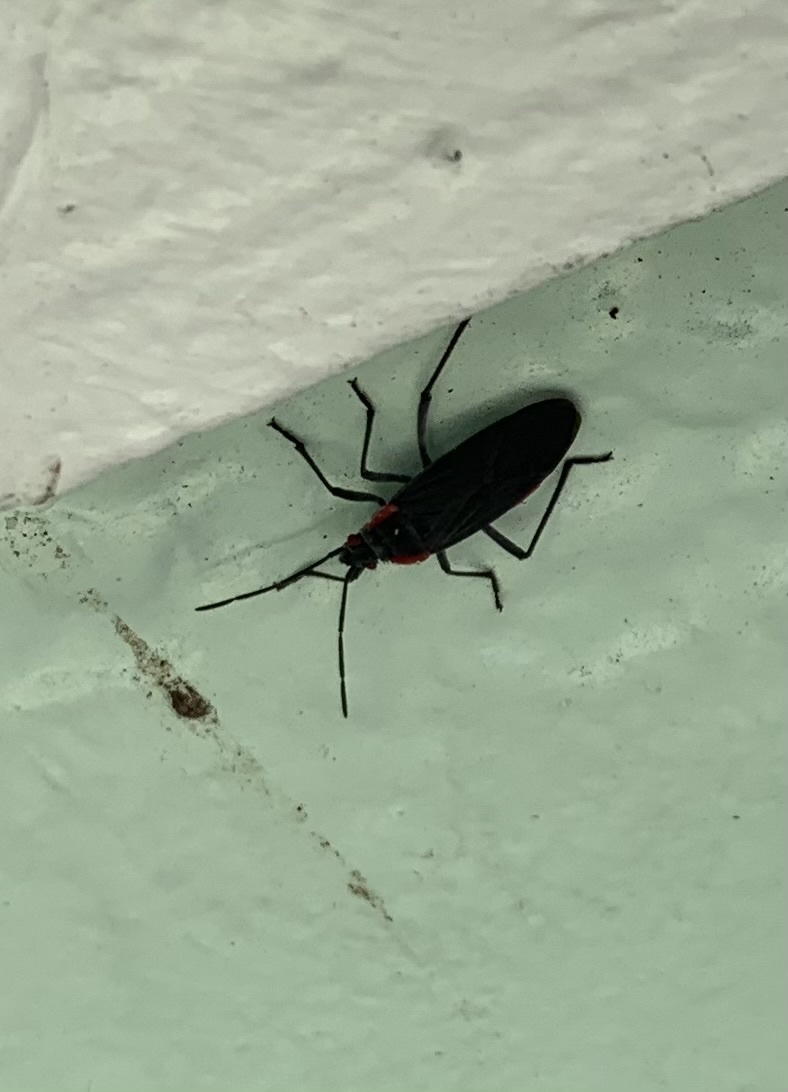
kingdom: Animalia
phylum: Arthropoda
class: Insecta
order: Hemiptera
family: Rhopalidae
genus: Jadera
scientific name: Jadera haematoloma
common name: Red-shouldered bug
